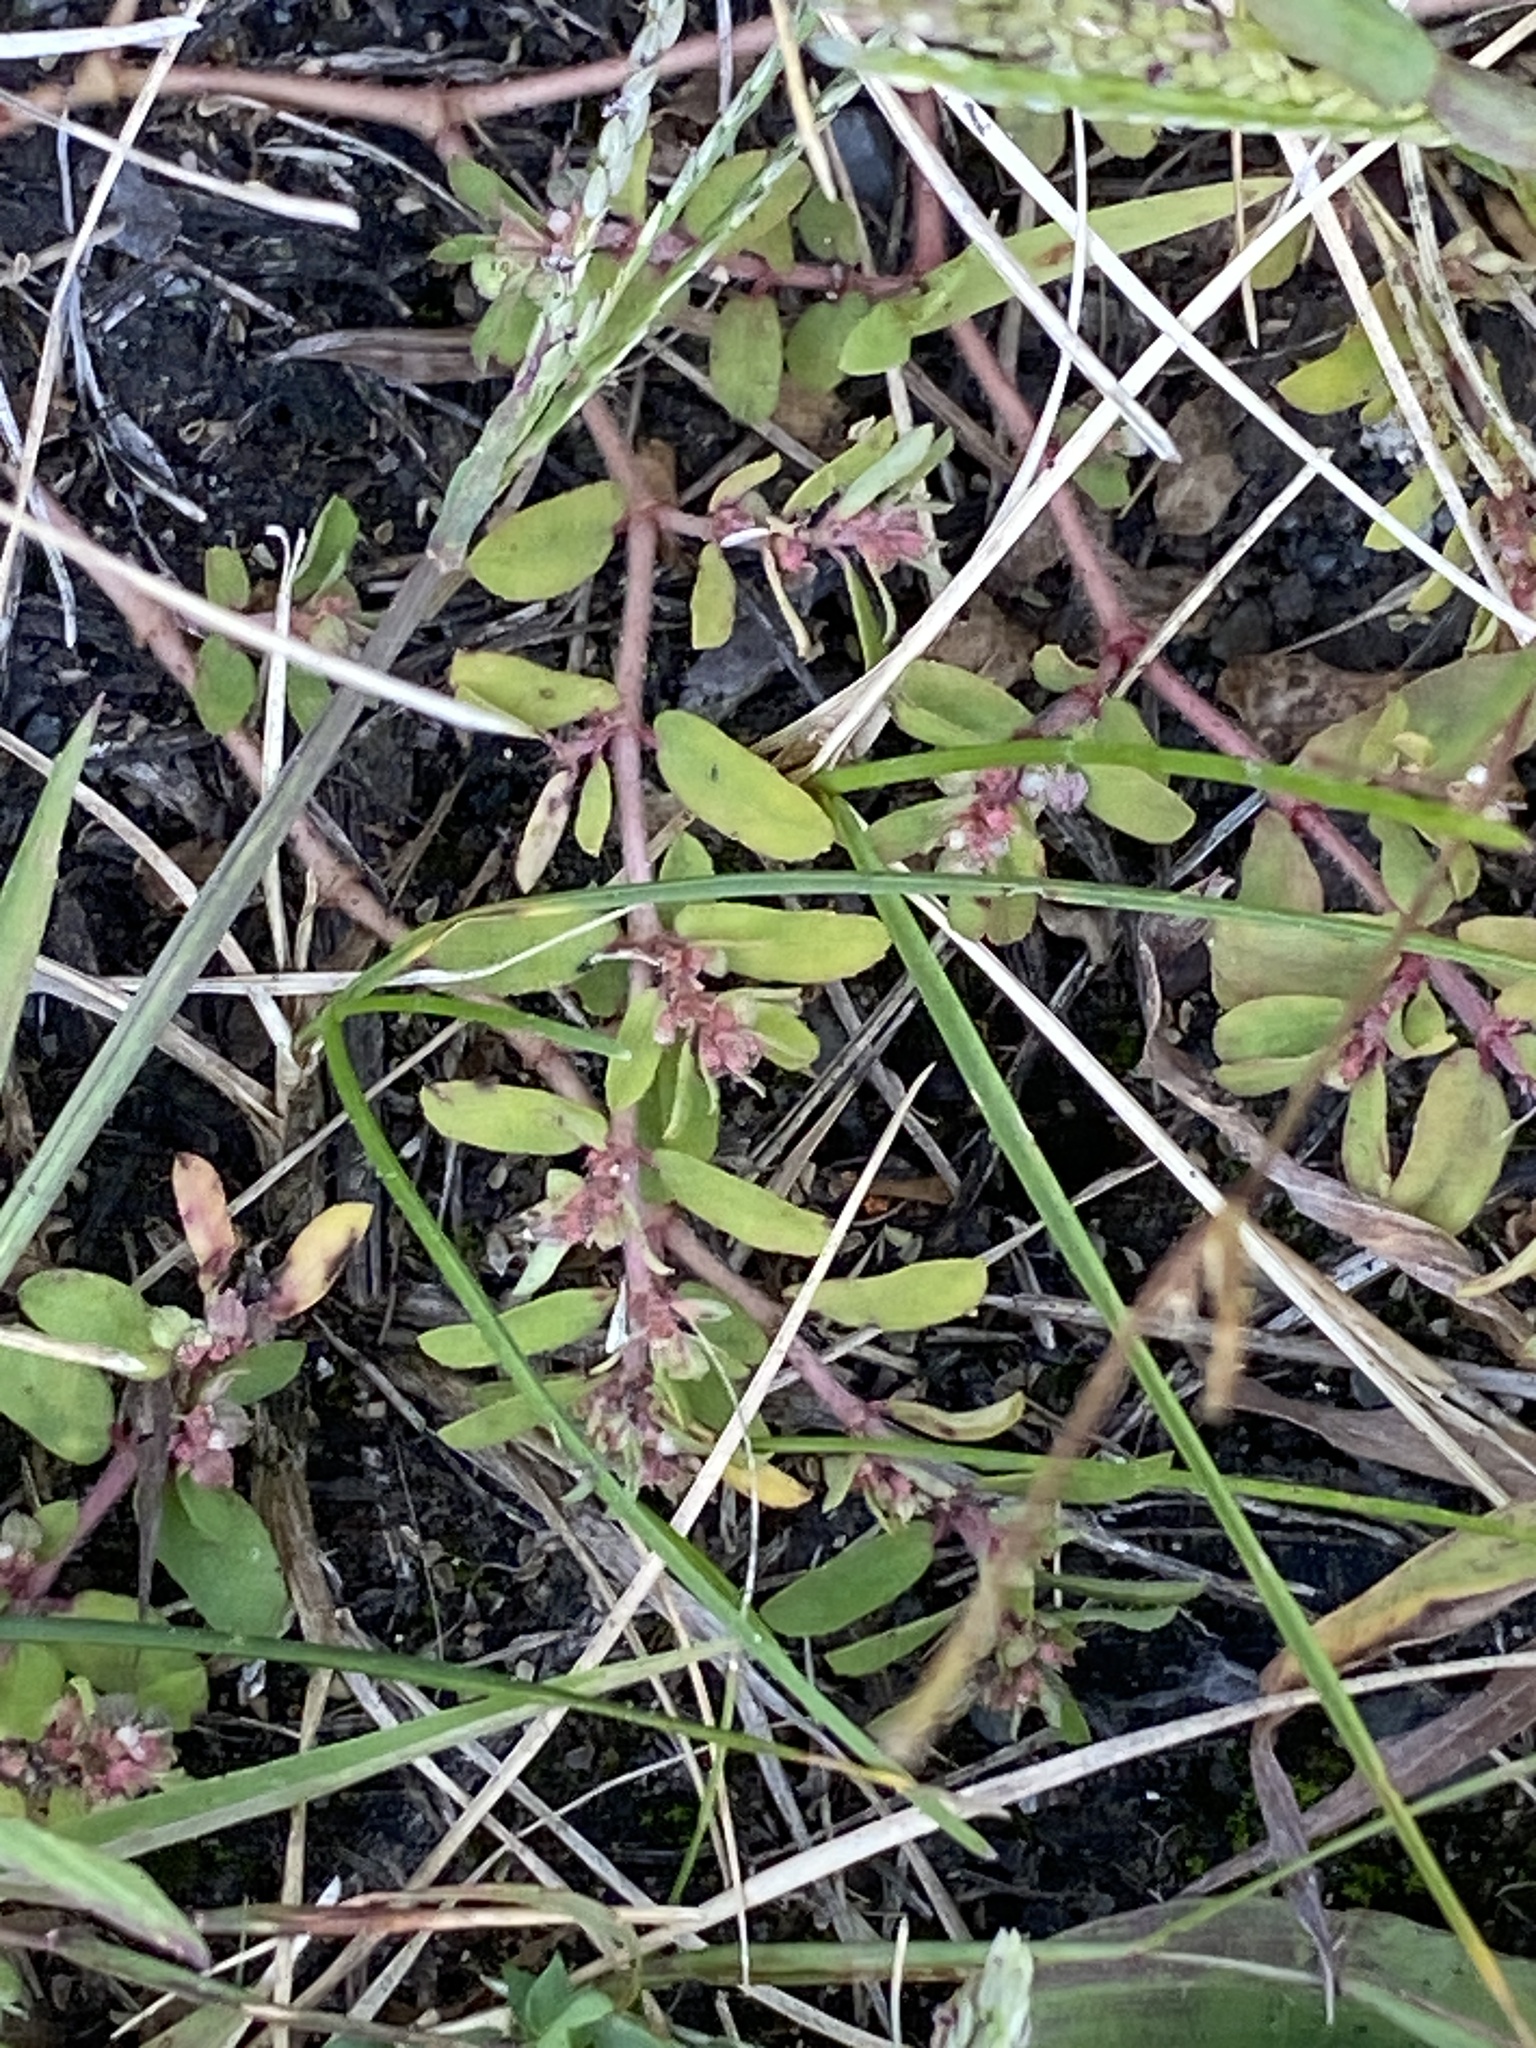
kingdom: Plantae
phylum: Tracheophyta
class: Magnoliopsida
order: Malpighiales
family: Euphorbiaceae
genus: Euphorbia
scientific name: Euphorbia maculata
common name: Spotted spurge
